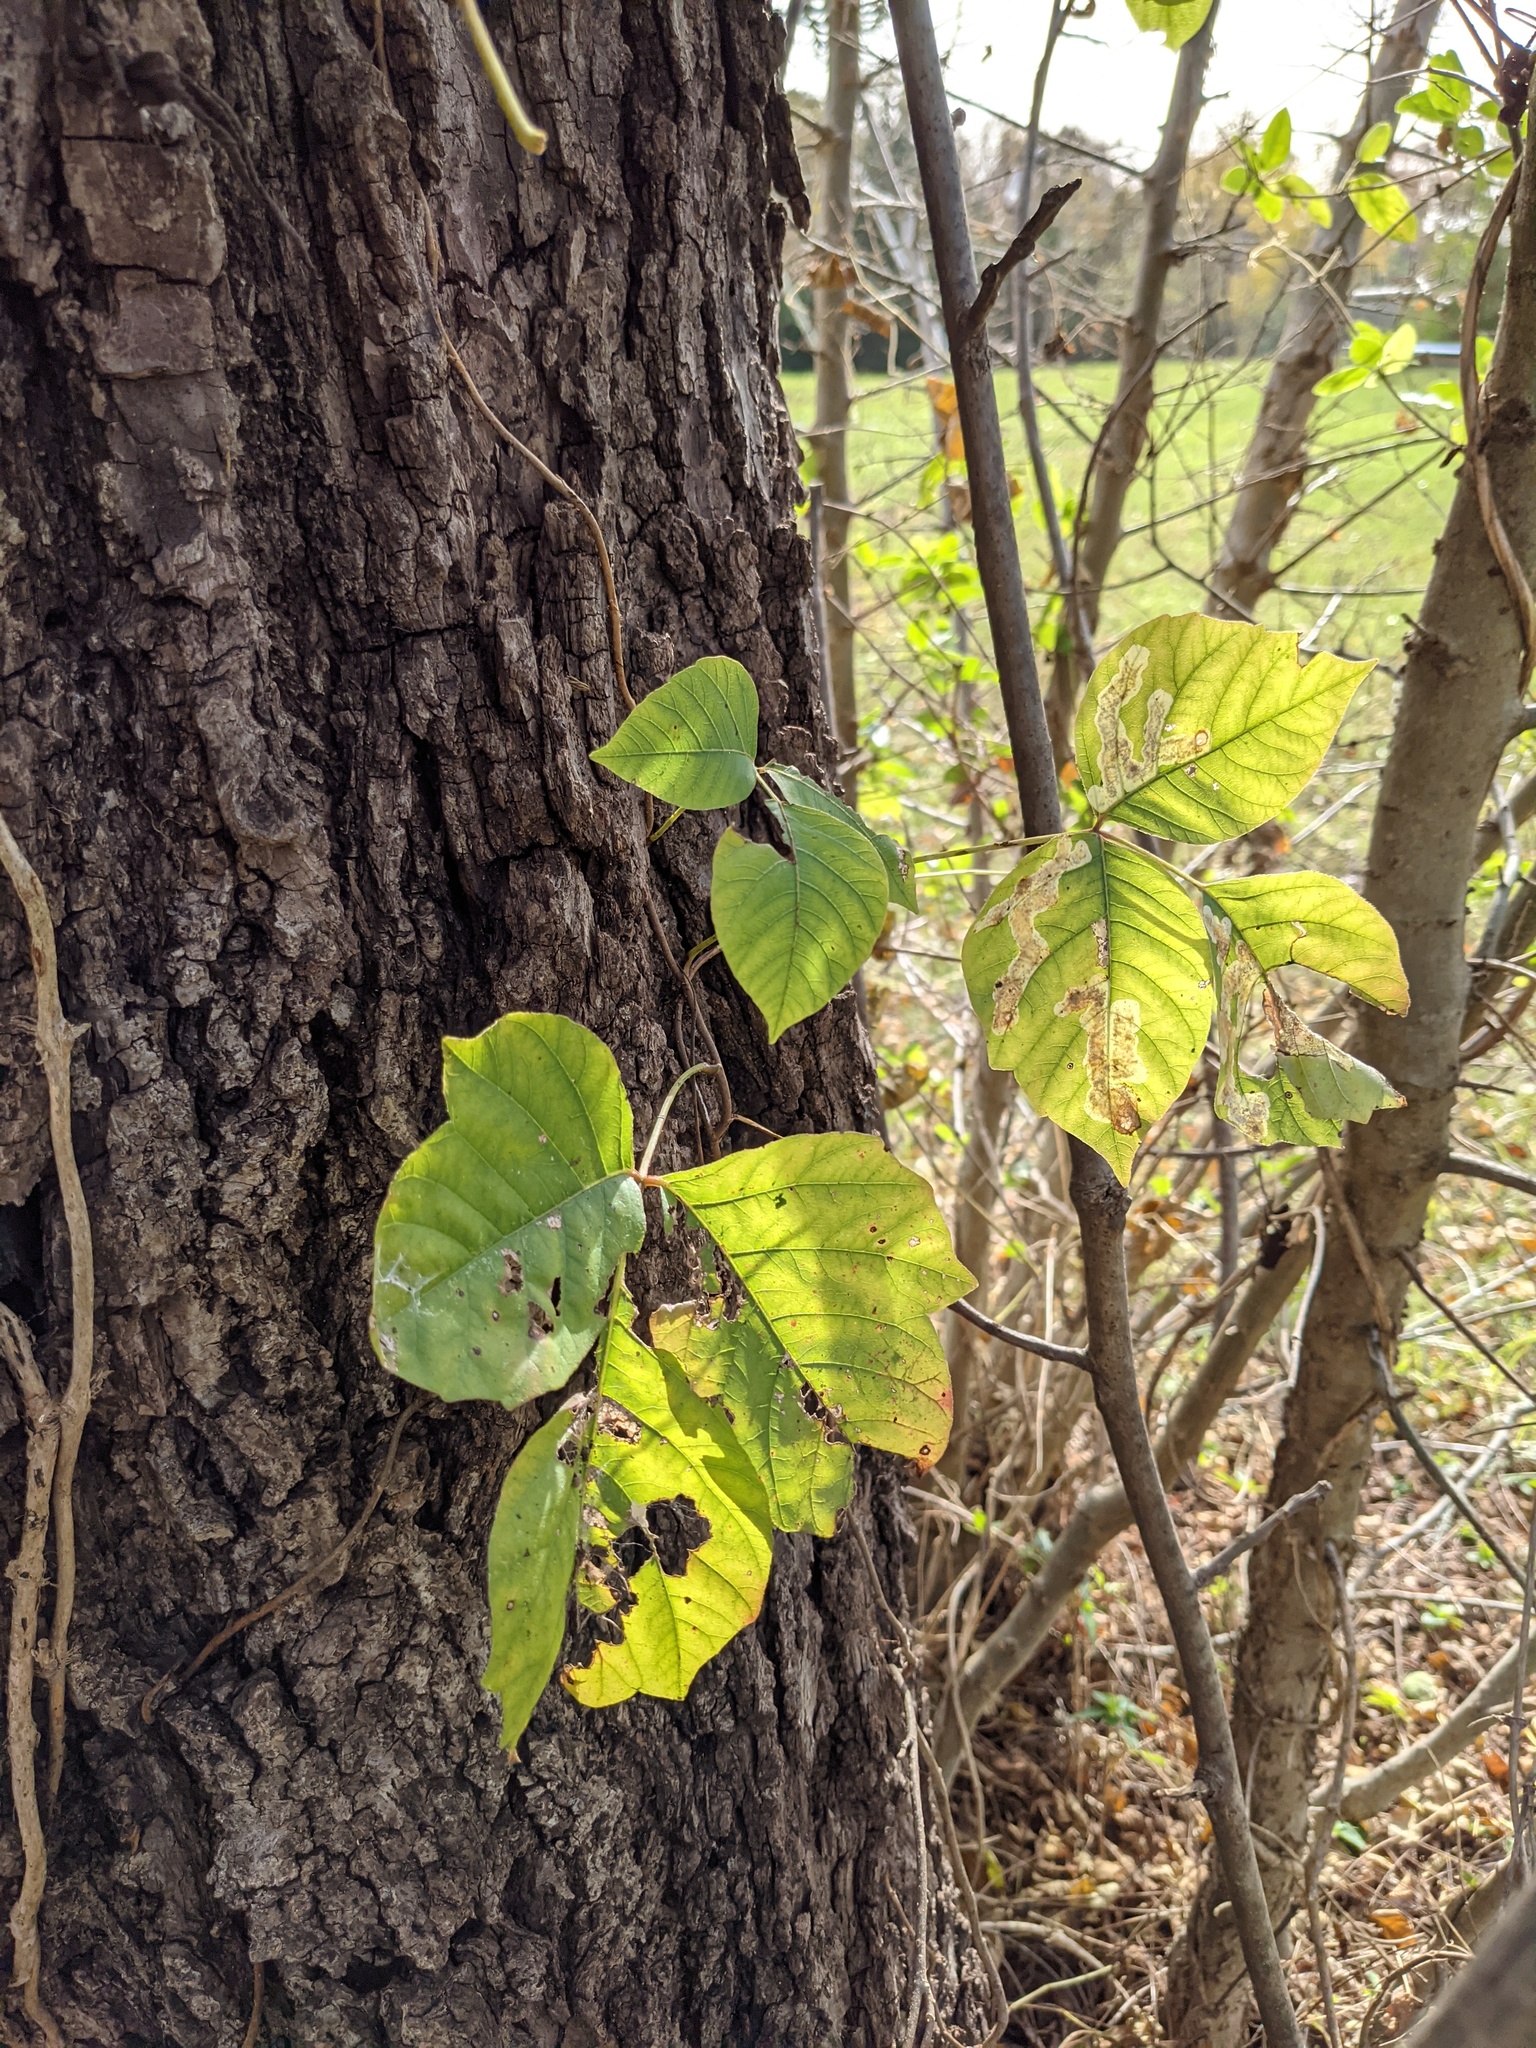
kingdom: Plantae
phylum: Tracheophyta
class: Magnoliopsida
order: Sapindales
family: Anacardiaceae
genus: Toxicodendron
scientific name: Toxicodendron radicans
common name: Poison ivy
